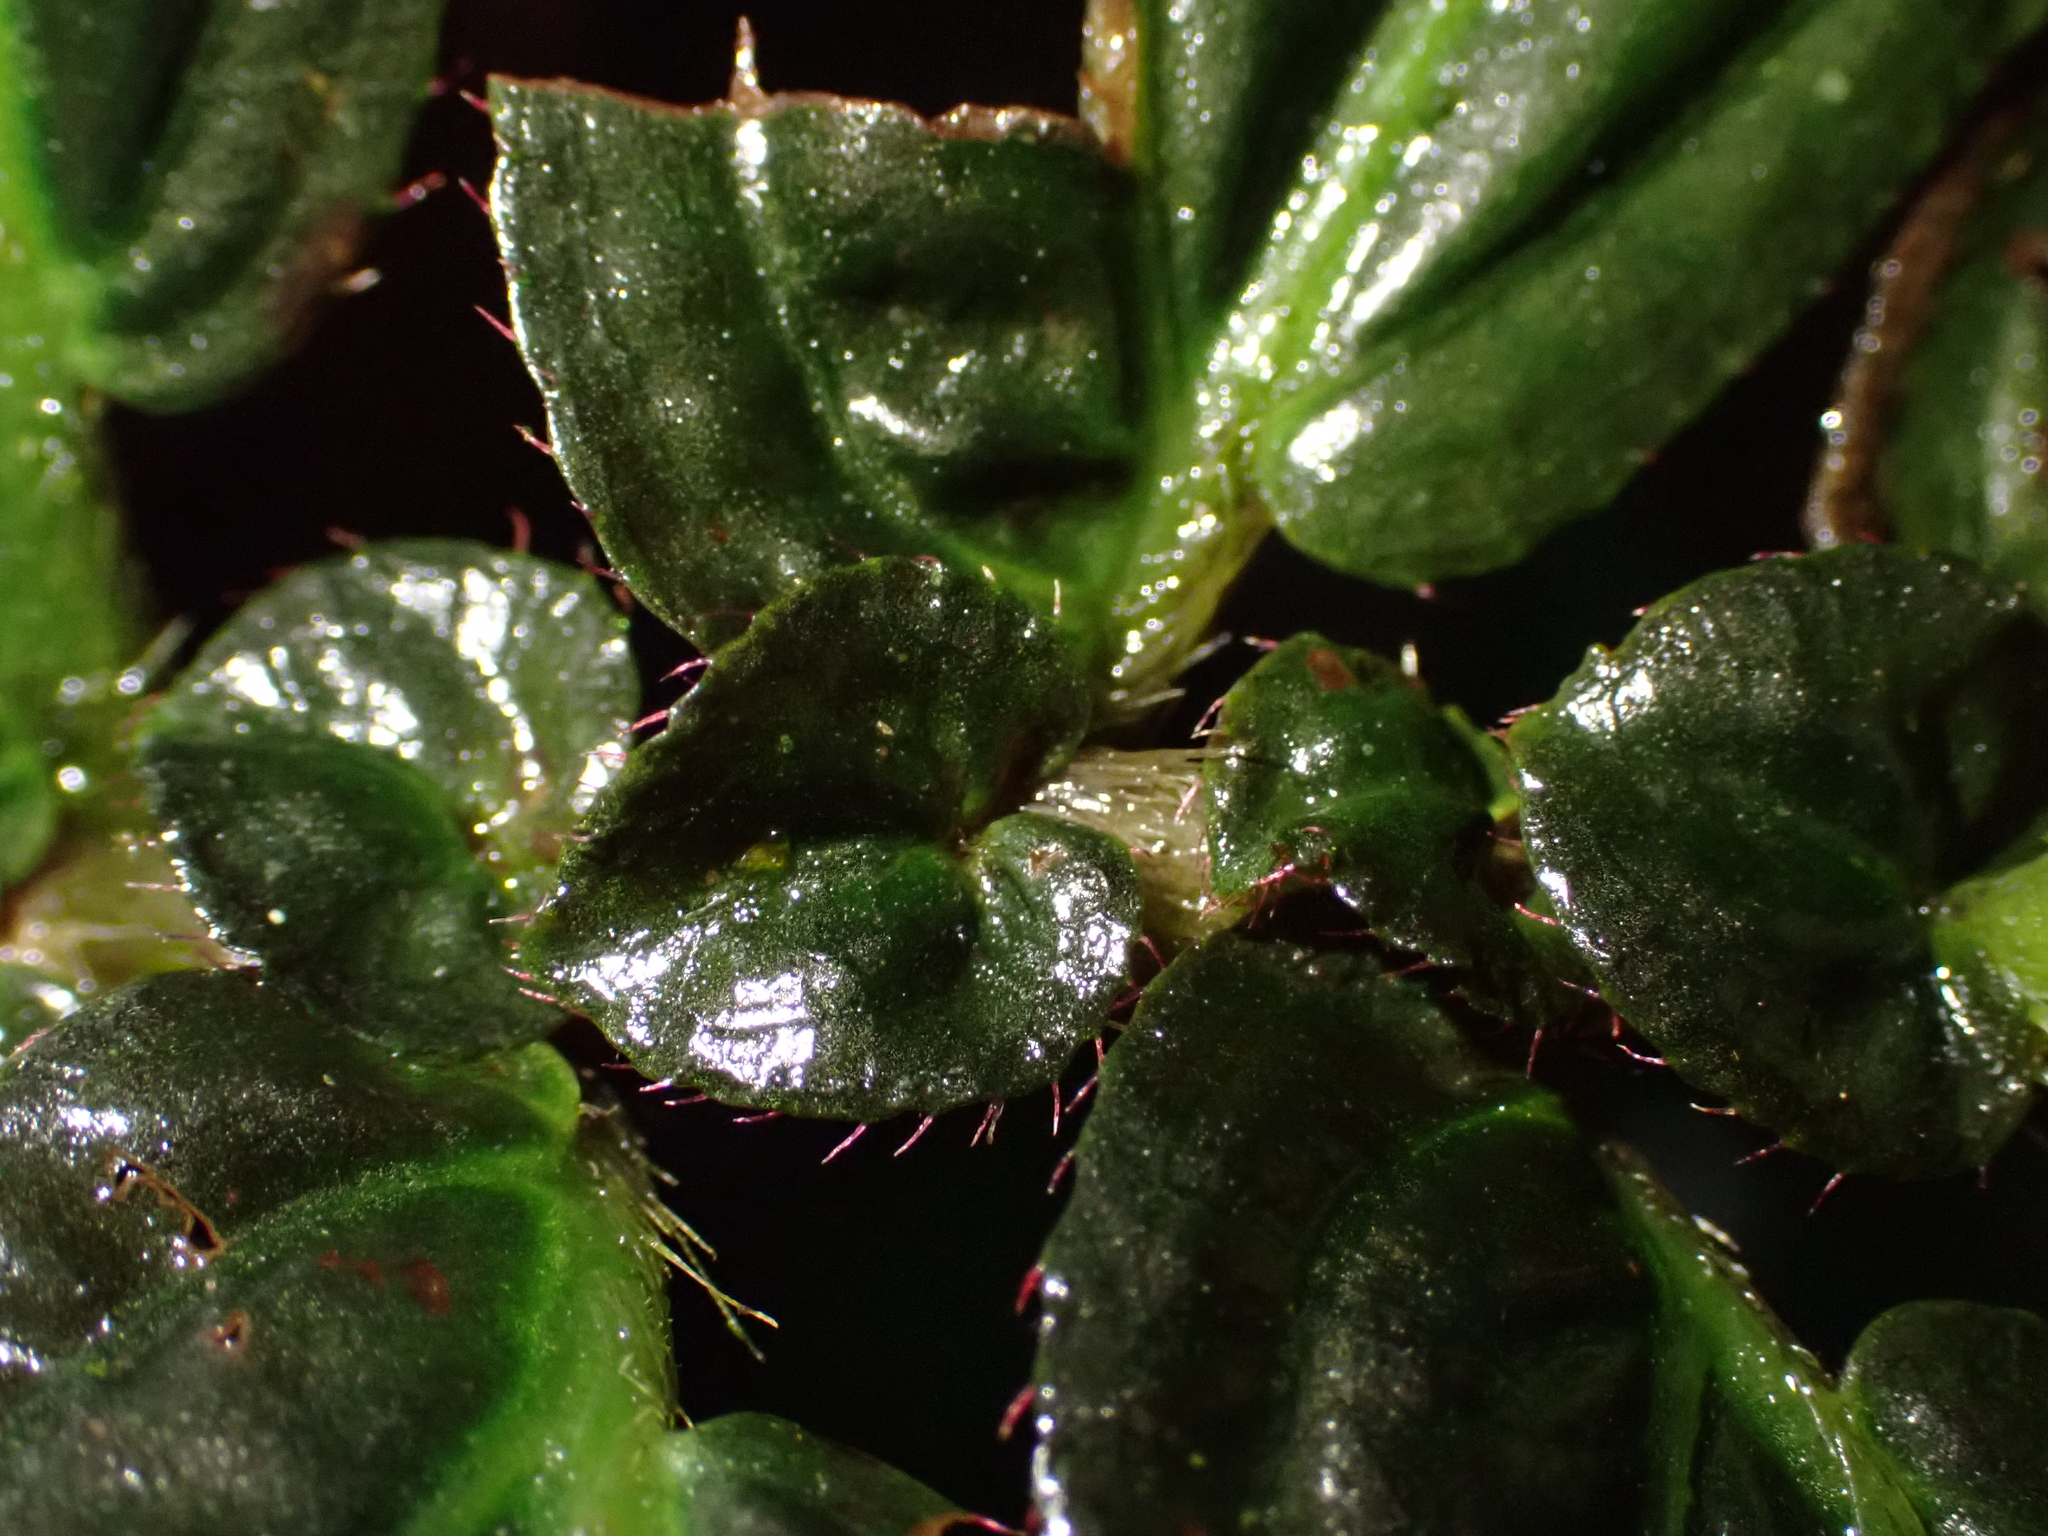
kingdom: Plantae
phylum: Tracheophyta
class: Magnoliopsida
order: Myrtales
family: Melastomataceae
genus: Triolena
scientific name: Triolena obliqua
